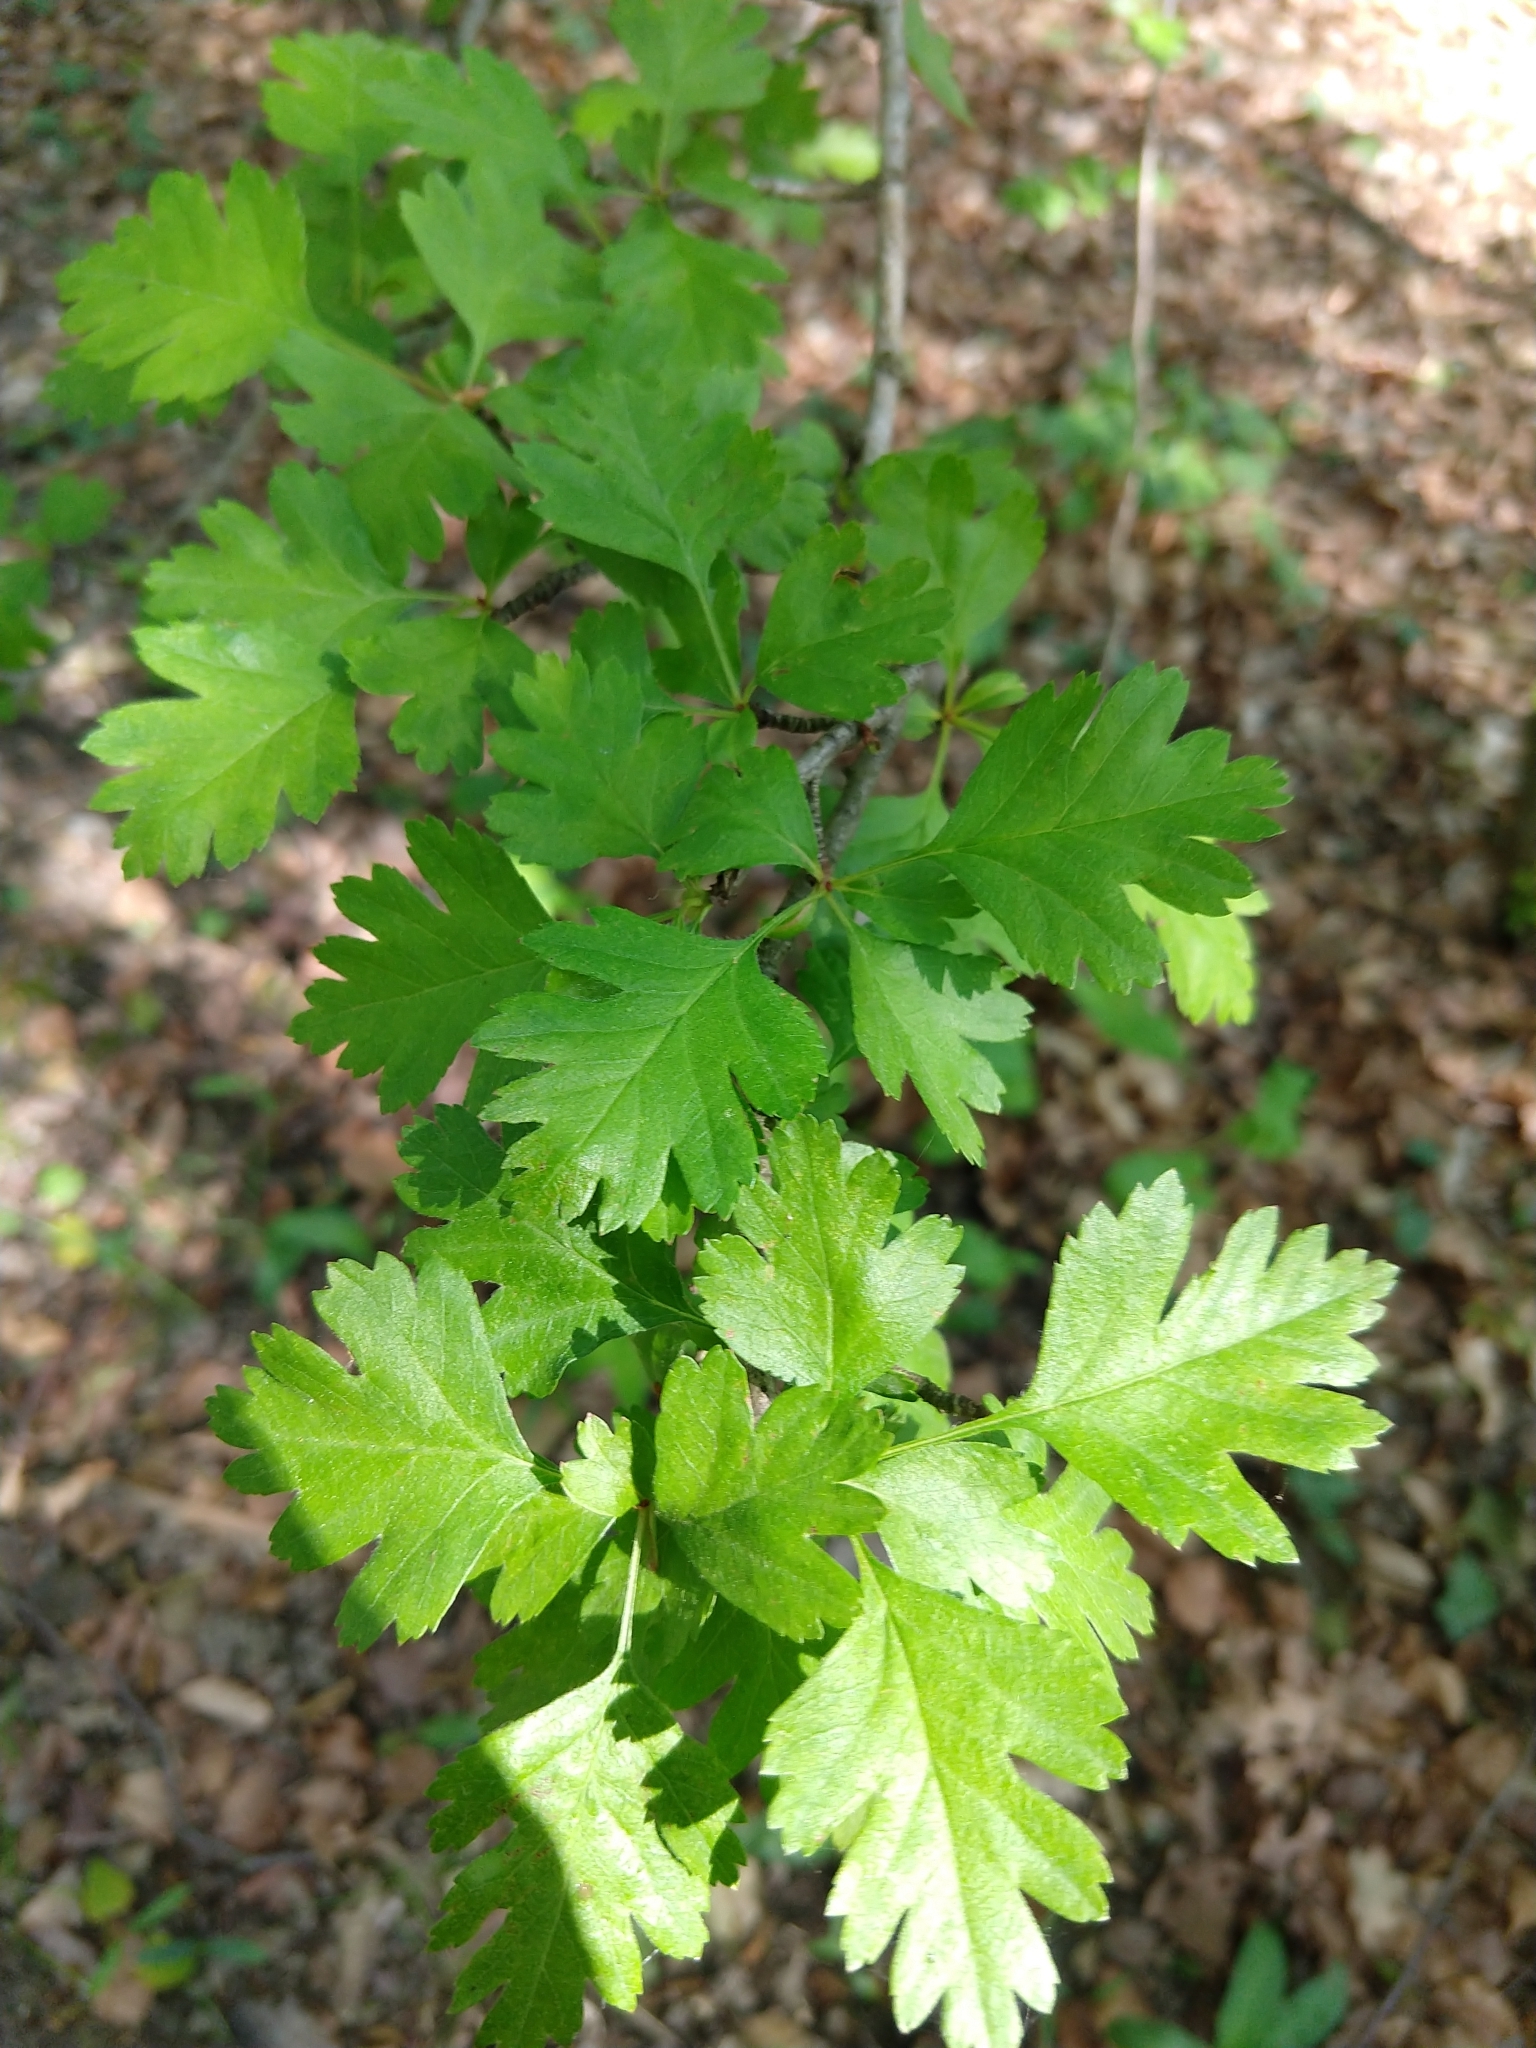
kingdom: Plantae
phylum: Tracheophyta
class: Magnoliopsida
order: Rosales
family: Rosaceae
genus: Crataegus
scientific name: Crataegus monogyna
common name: Hawthorn
